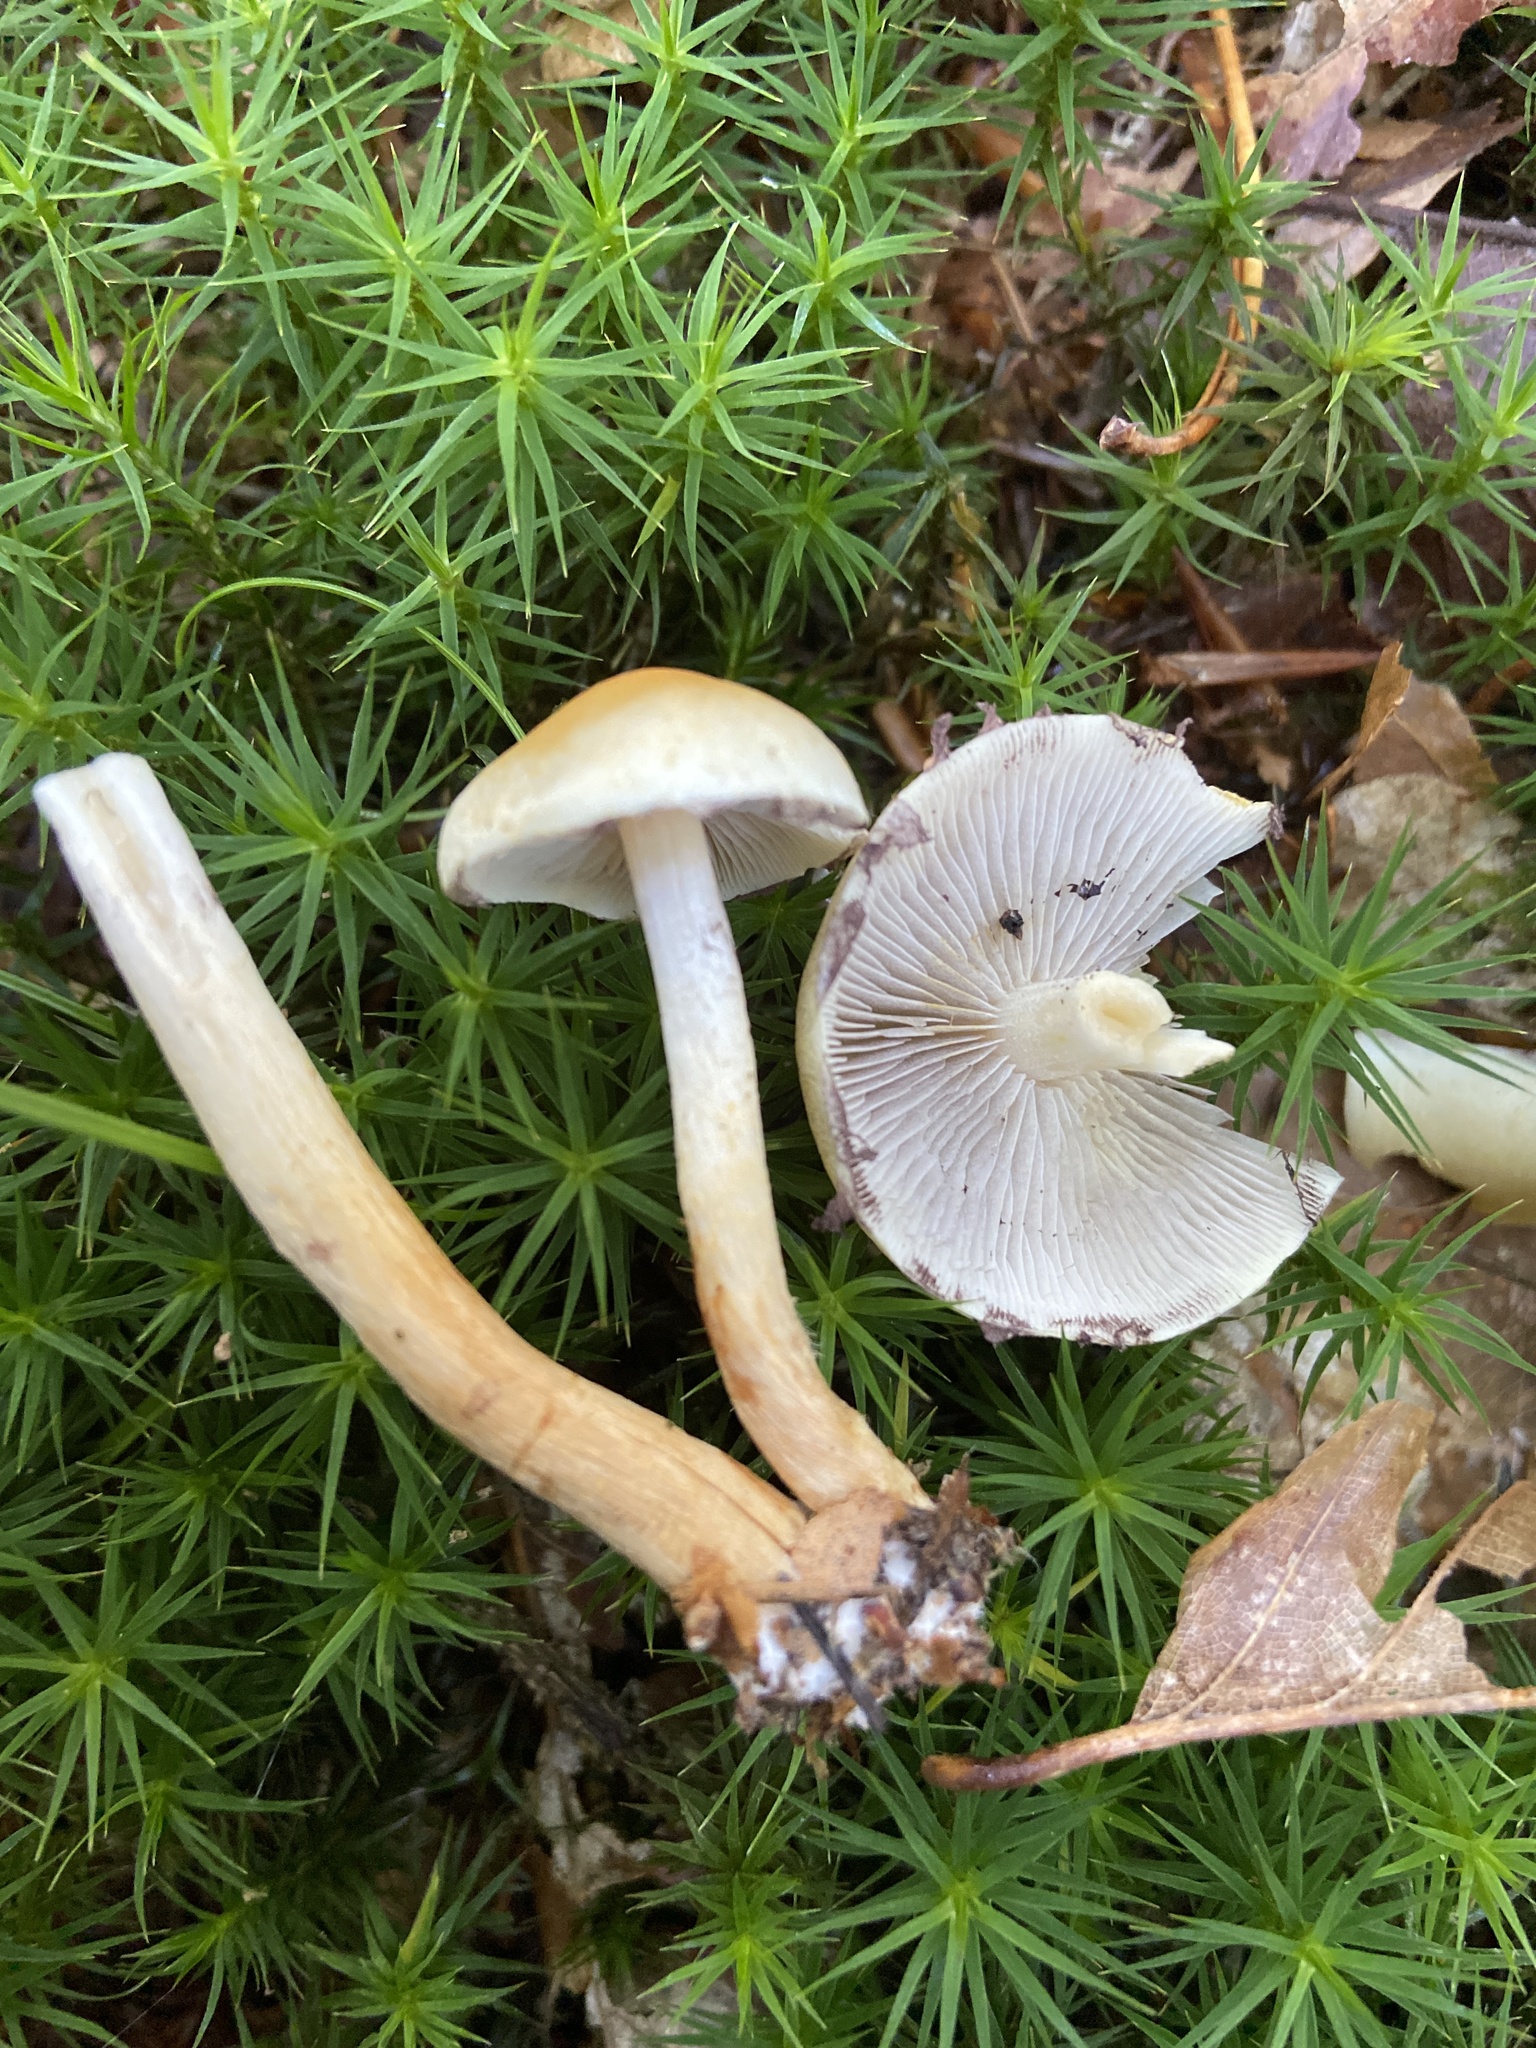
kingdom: Fungi
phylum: Basidiomycota
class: Agaricomycetes
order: Agaricales
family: Strophariaceae
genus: Hypholoma
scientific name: Hypholoma capnoides
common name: Conifer tuft
